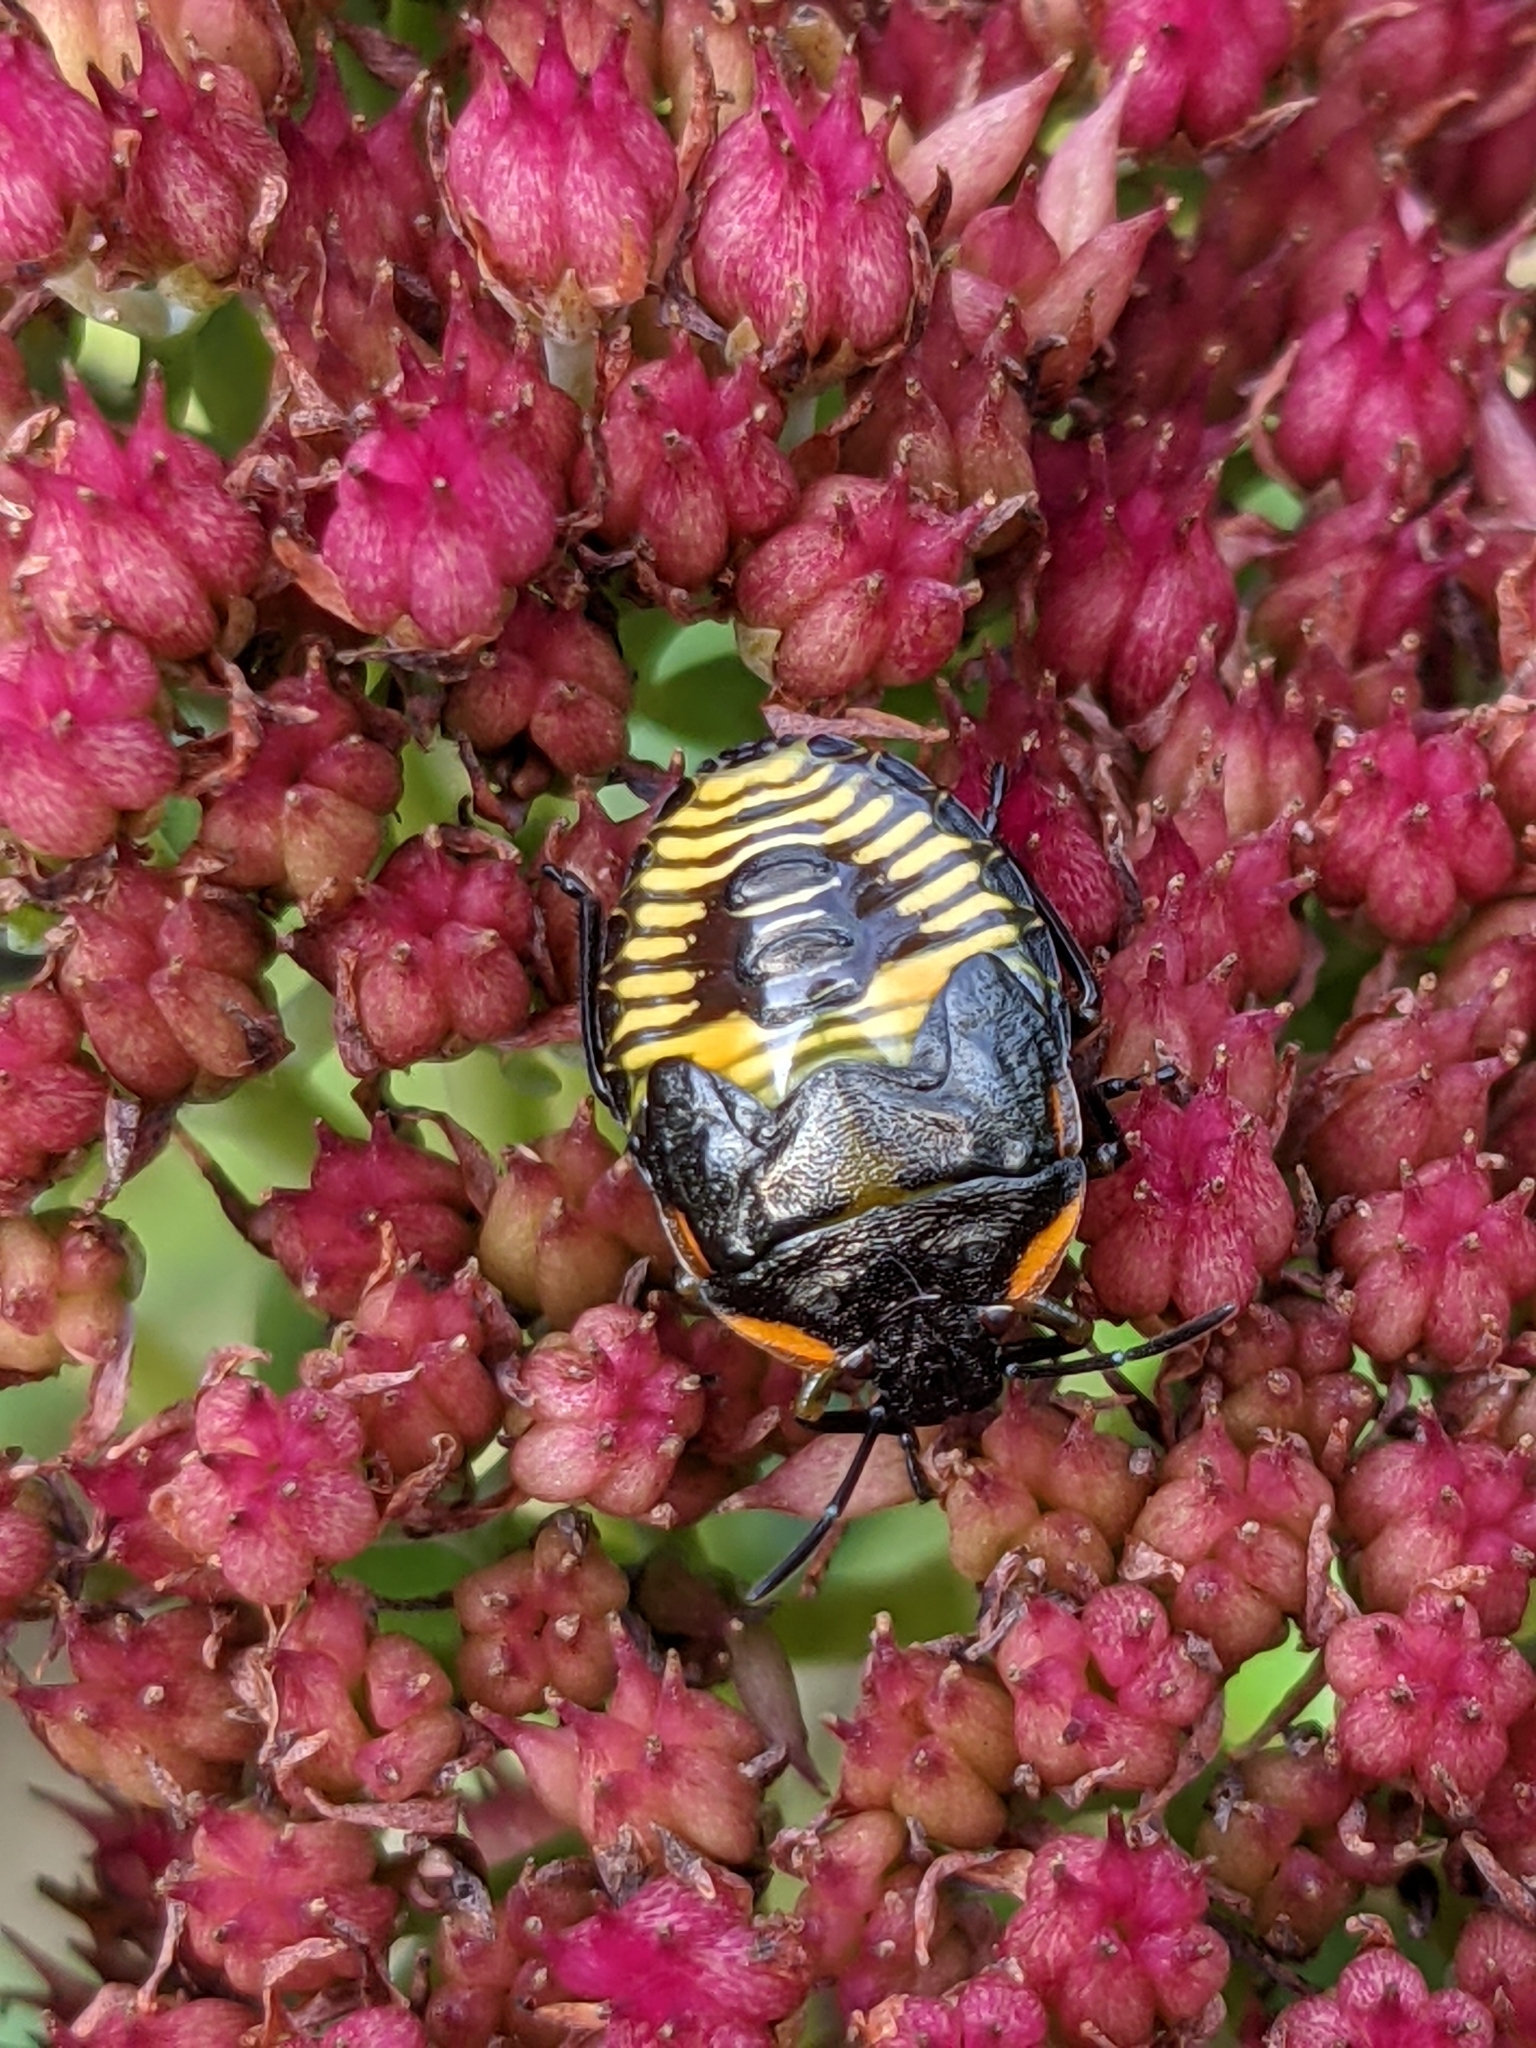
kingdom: Animalia
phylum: Arthropoda
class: Insecta
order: Hemiptera
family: Pentatomidae
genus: Chinavia
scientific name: Chinavia hilaris
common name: Green stink bug
